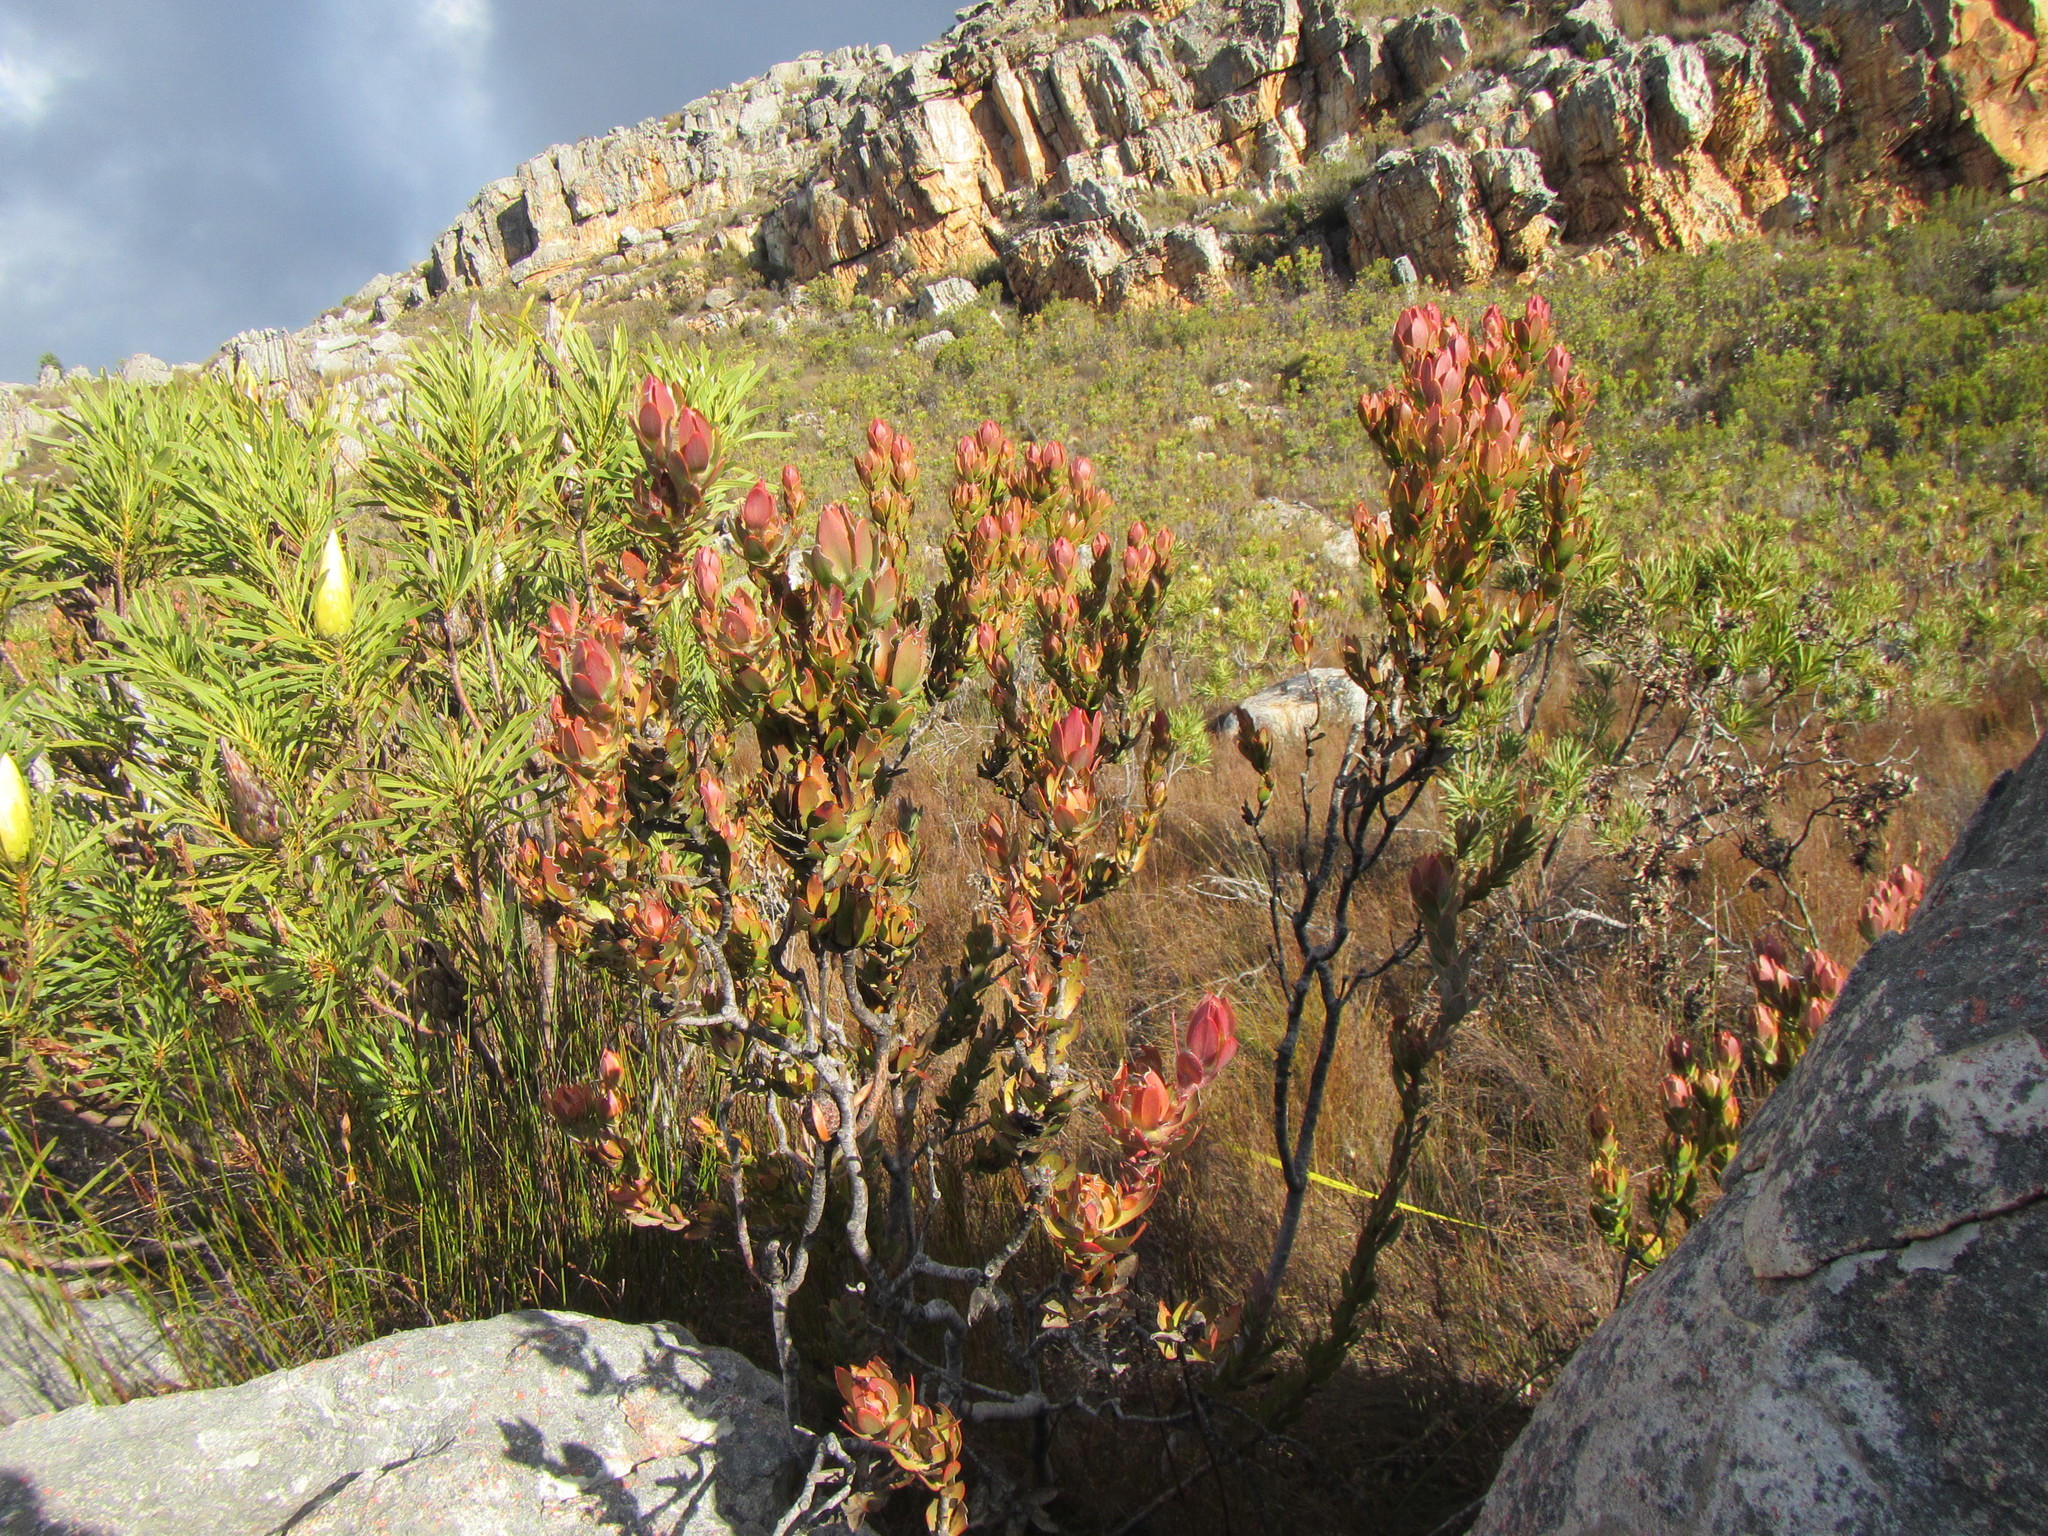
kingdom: Plantae
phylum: Tracheophyta
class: Magnoliopsida
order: Proteales
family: Proteaceae
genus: Leucadendron
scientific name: Leucadendron nervosum
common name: Silky-ruff conebush
